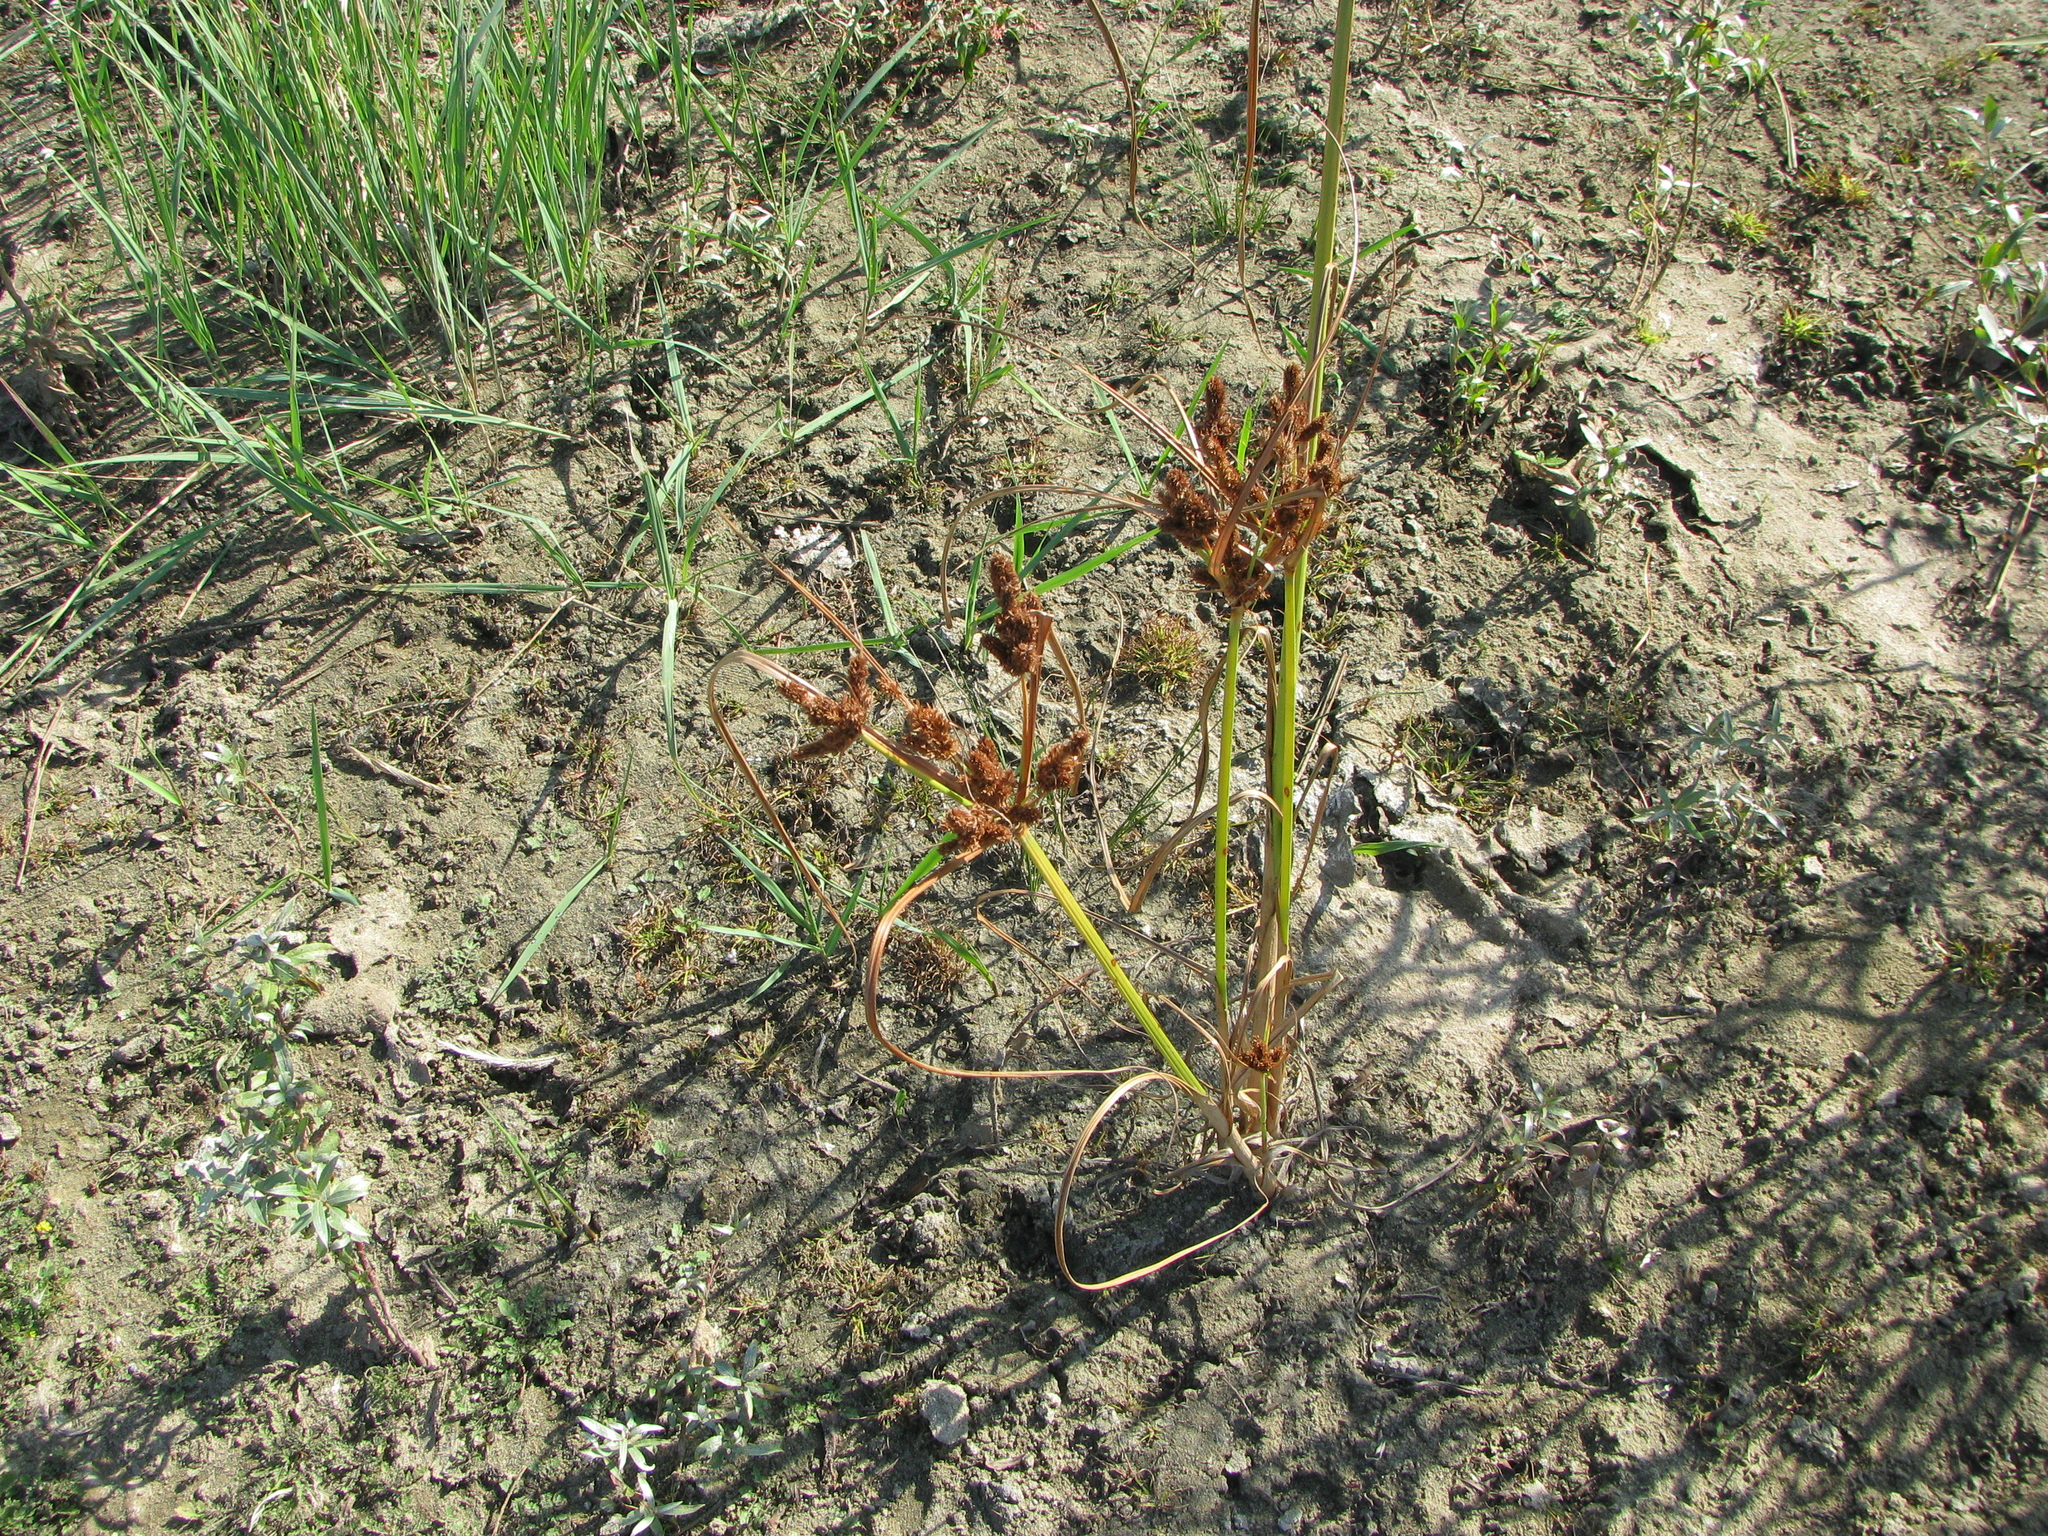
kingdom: Plantae
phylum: Tracheophyta
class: Liliopsida
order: Poales
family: Cyperaceae
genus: Cyperus
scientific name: Cyperus glomeratus
